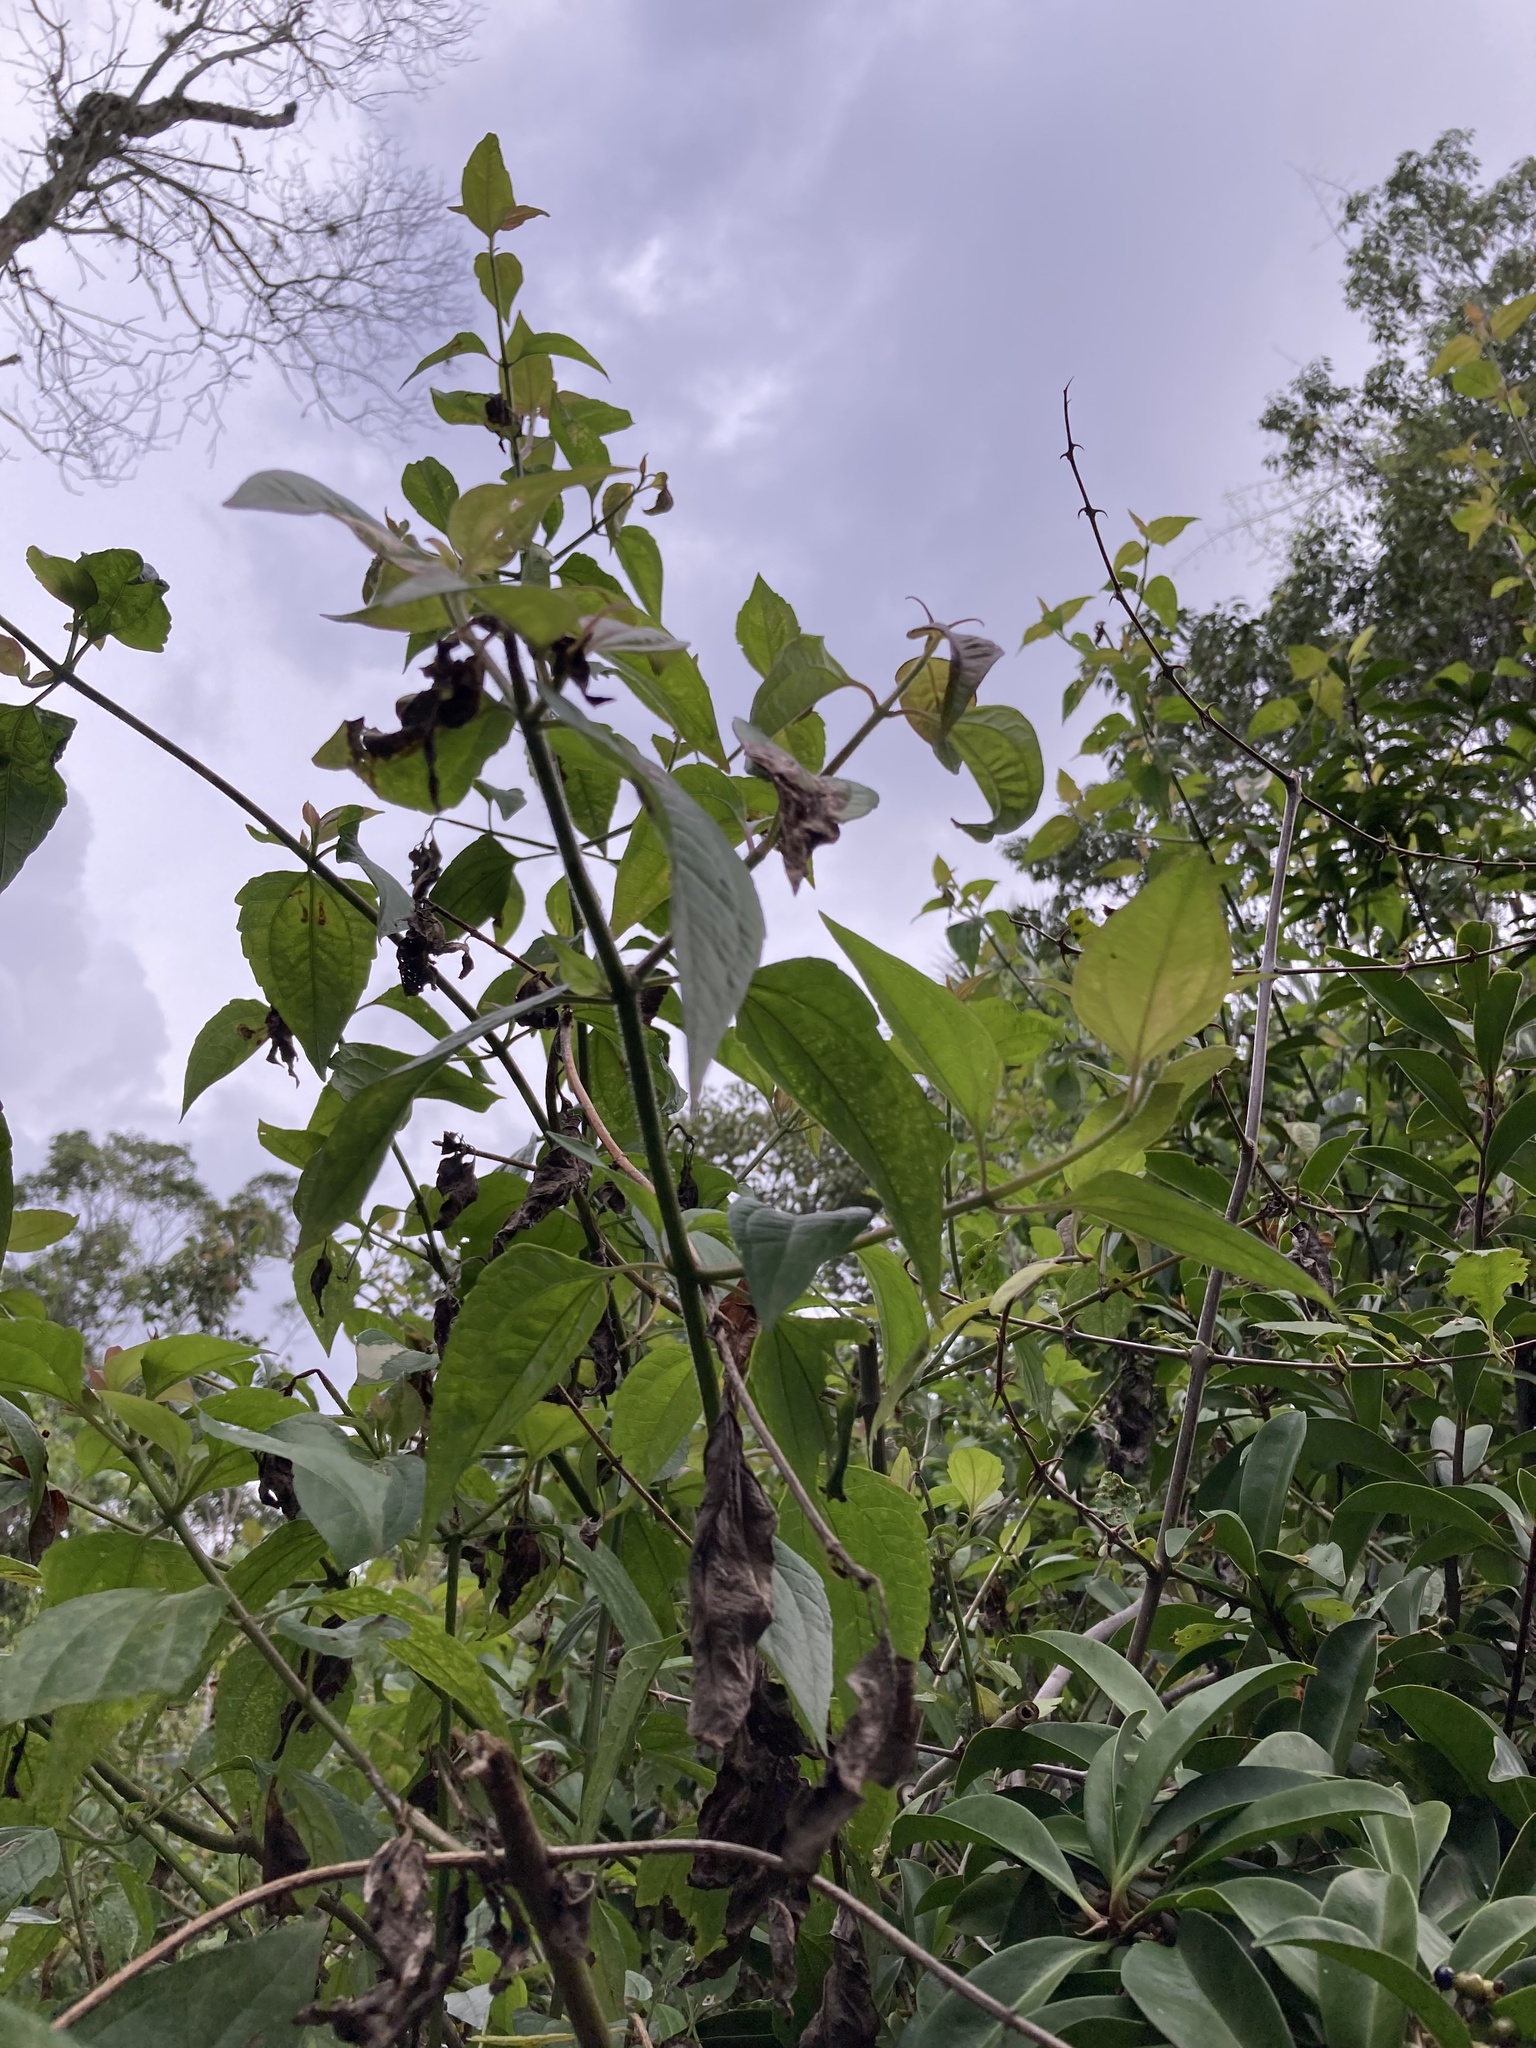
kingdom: Plantae
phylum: Tracheophyta
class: Magnoliopsida
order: Asterales
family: Asteraceae
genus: Chromolaena
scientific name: Chromolaena odorata
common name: Siamweed
